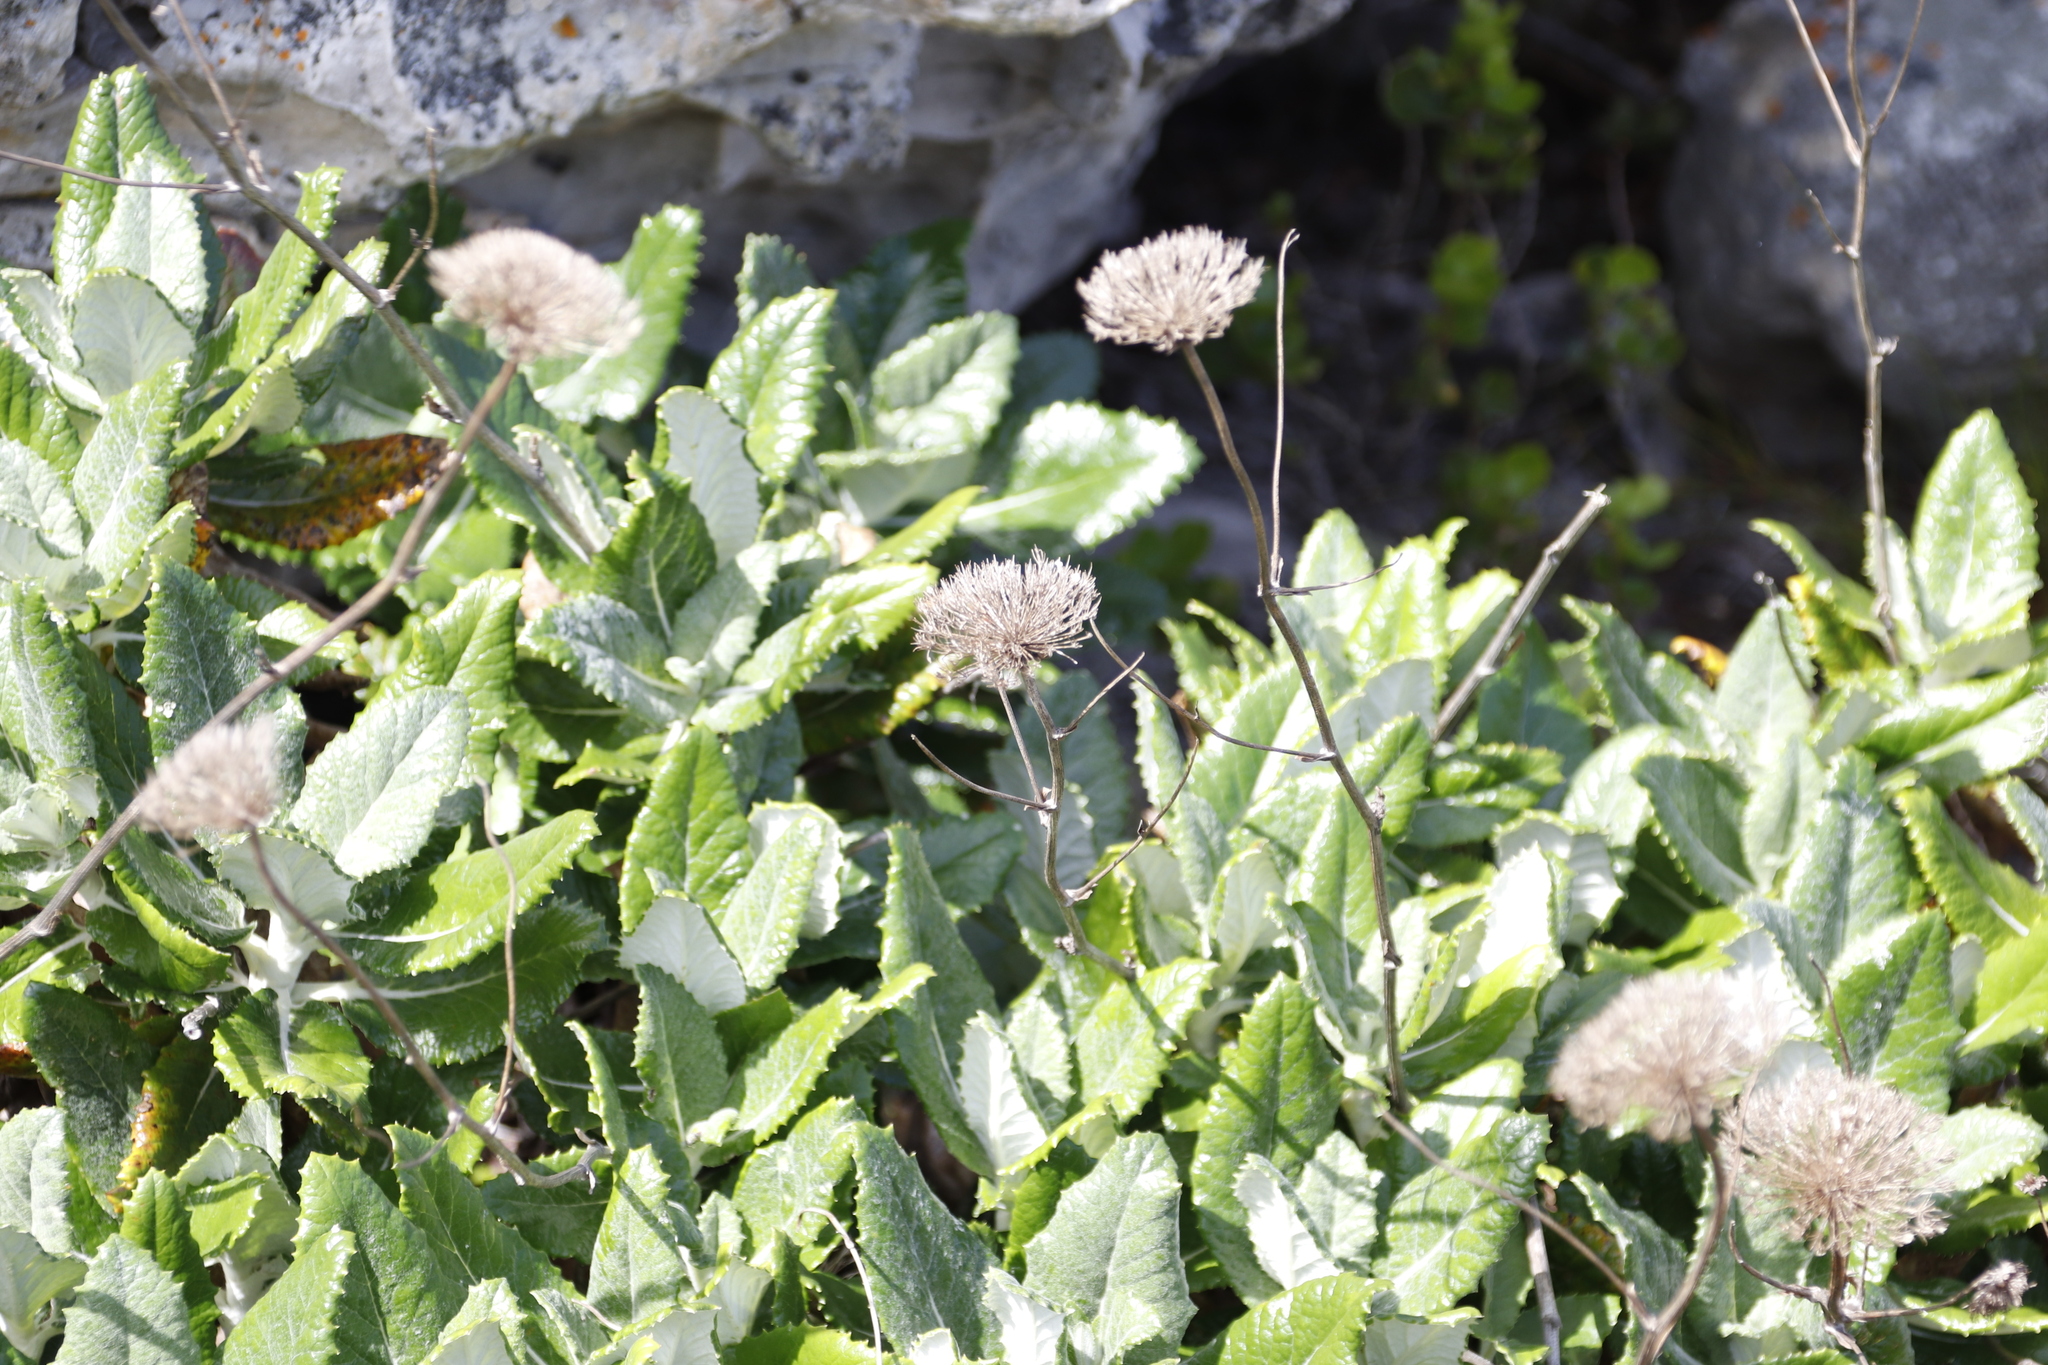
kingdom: Plantae
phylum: Tracheophyta
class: Magnoliopsida
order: Apiales
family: Apiaceae
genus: Hermas
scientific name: Hermas villosa
